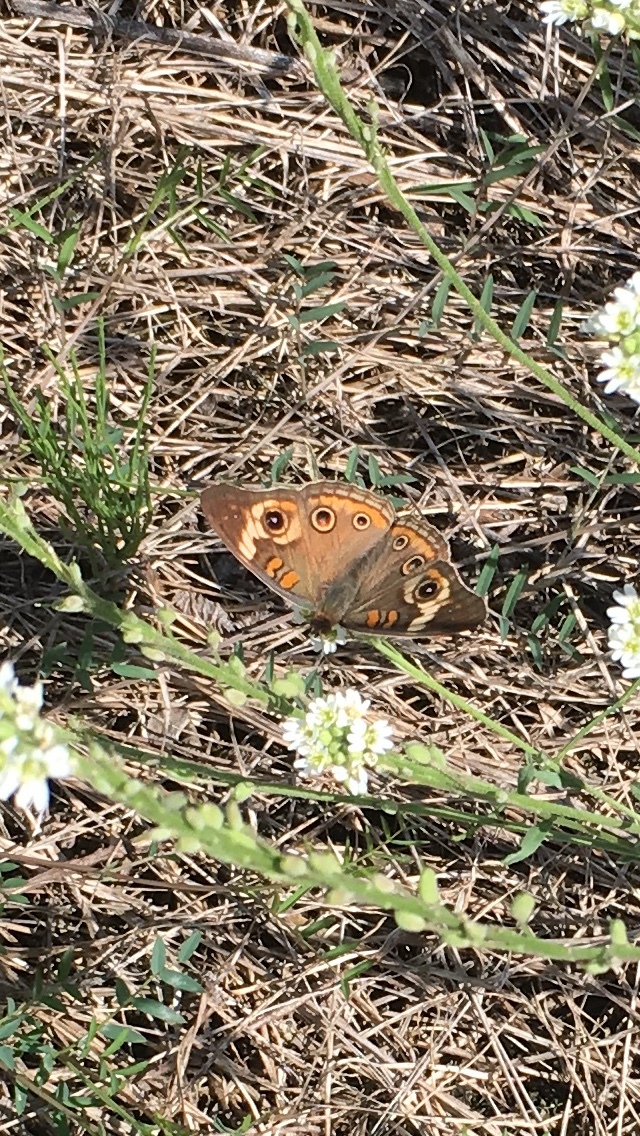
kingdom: Animalia
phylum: Arthropoda
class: Insecta
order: Lepidoptera
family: Nymphalidae
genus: Junonia
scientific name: Junonia coenia
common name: Common buckeye
